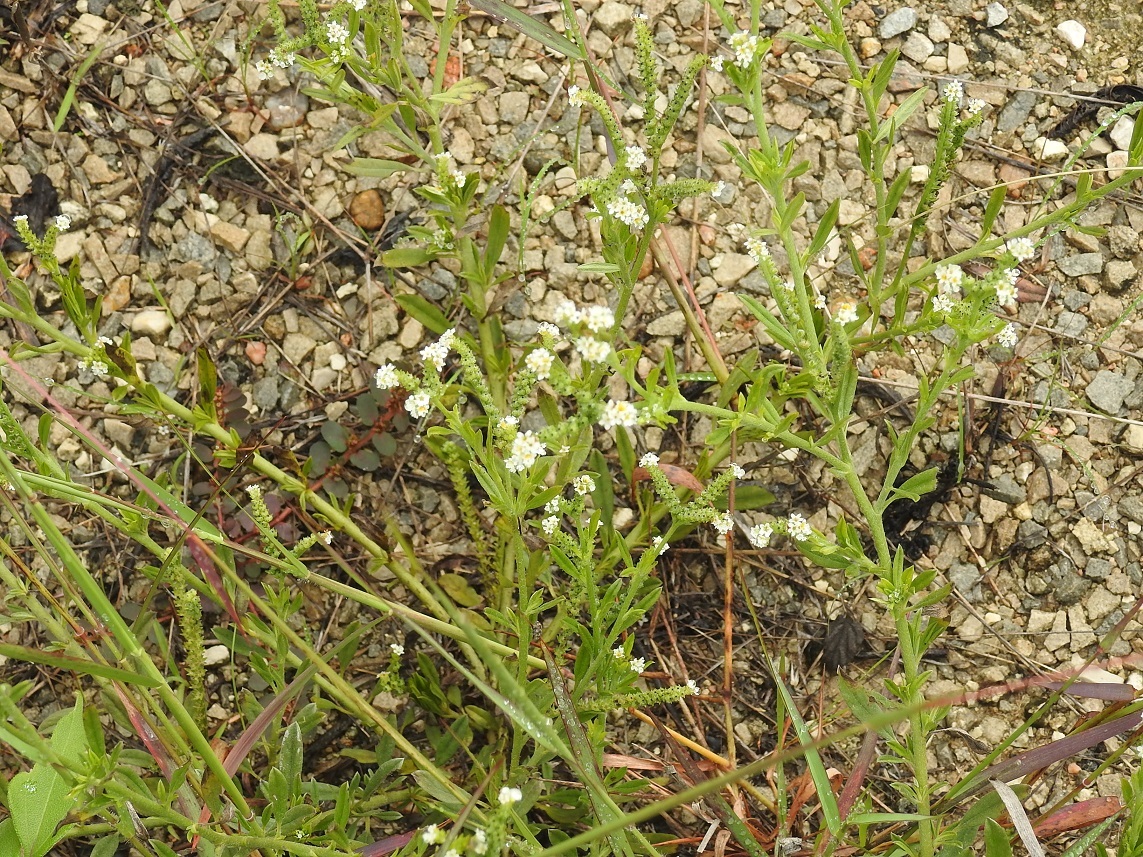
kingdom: Plantae
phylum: Tracheophyta
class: Magnoliopsida
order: Boraginales
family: Heliotropiaceae
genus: Euploca
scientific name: Euploca procumbens
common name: Fourspike heliotrope
